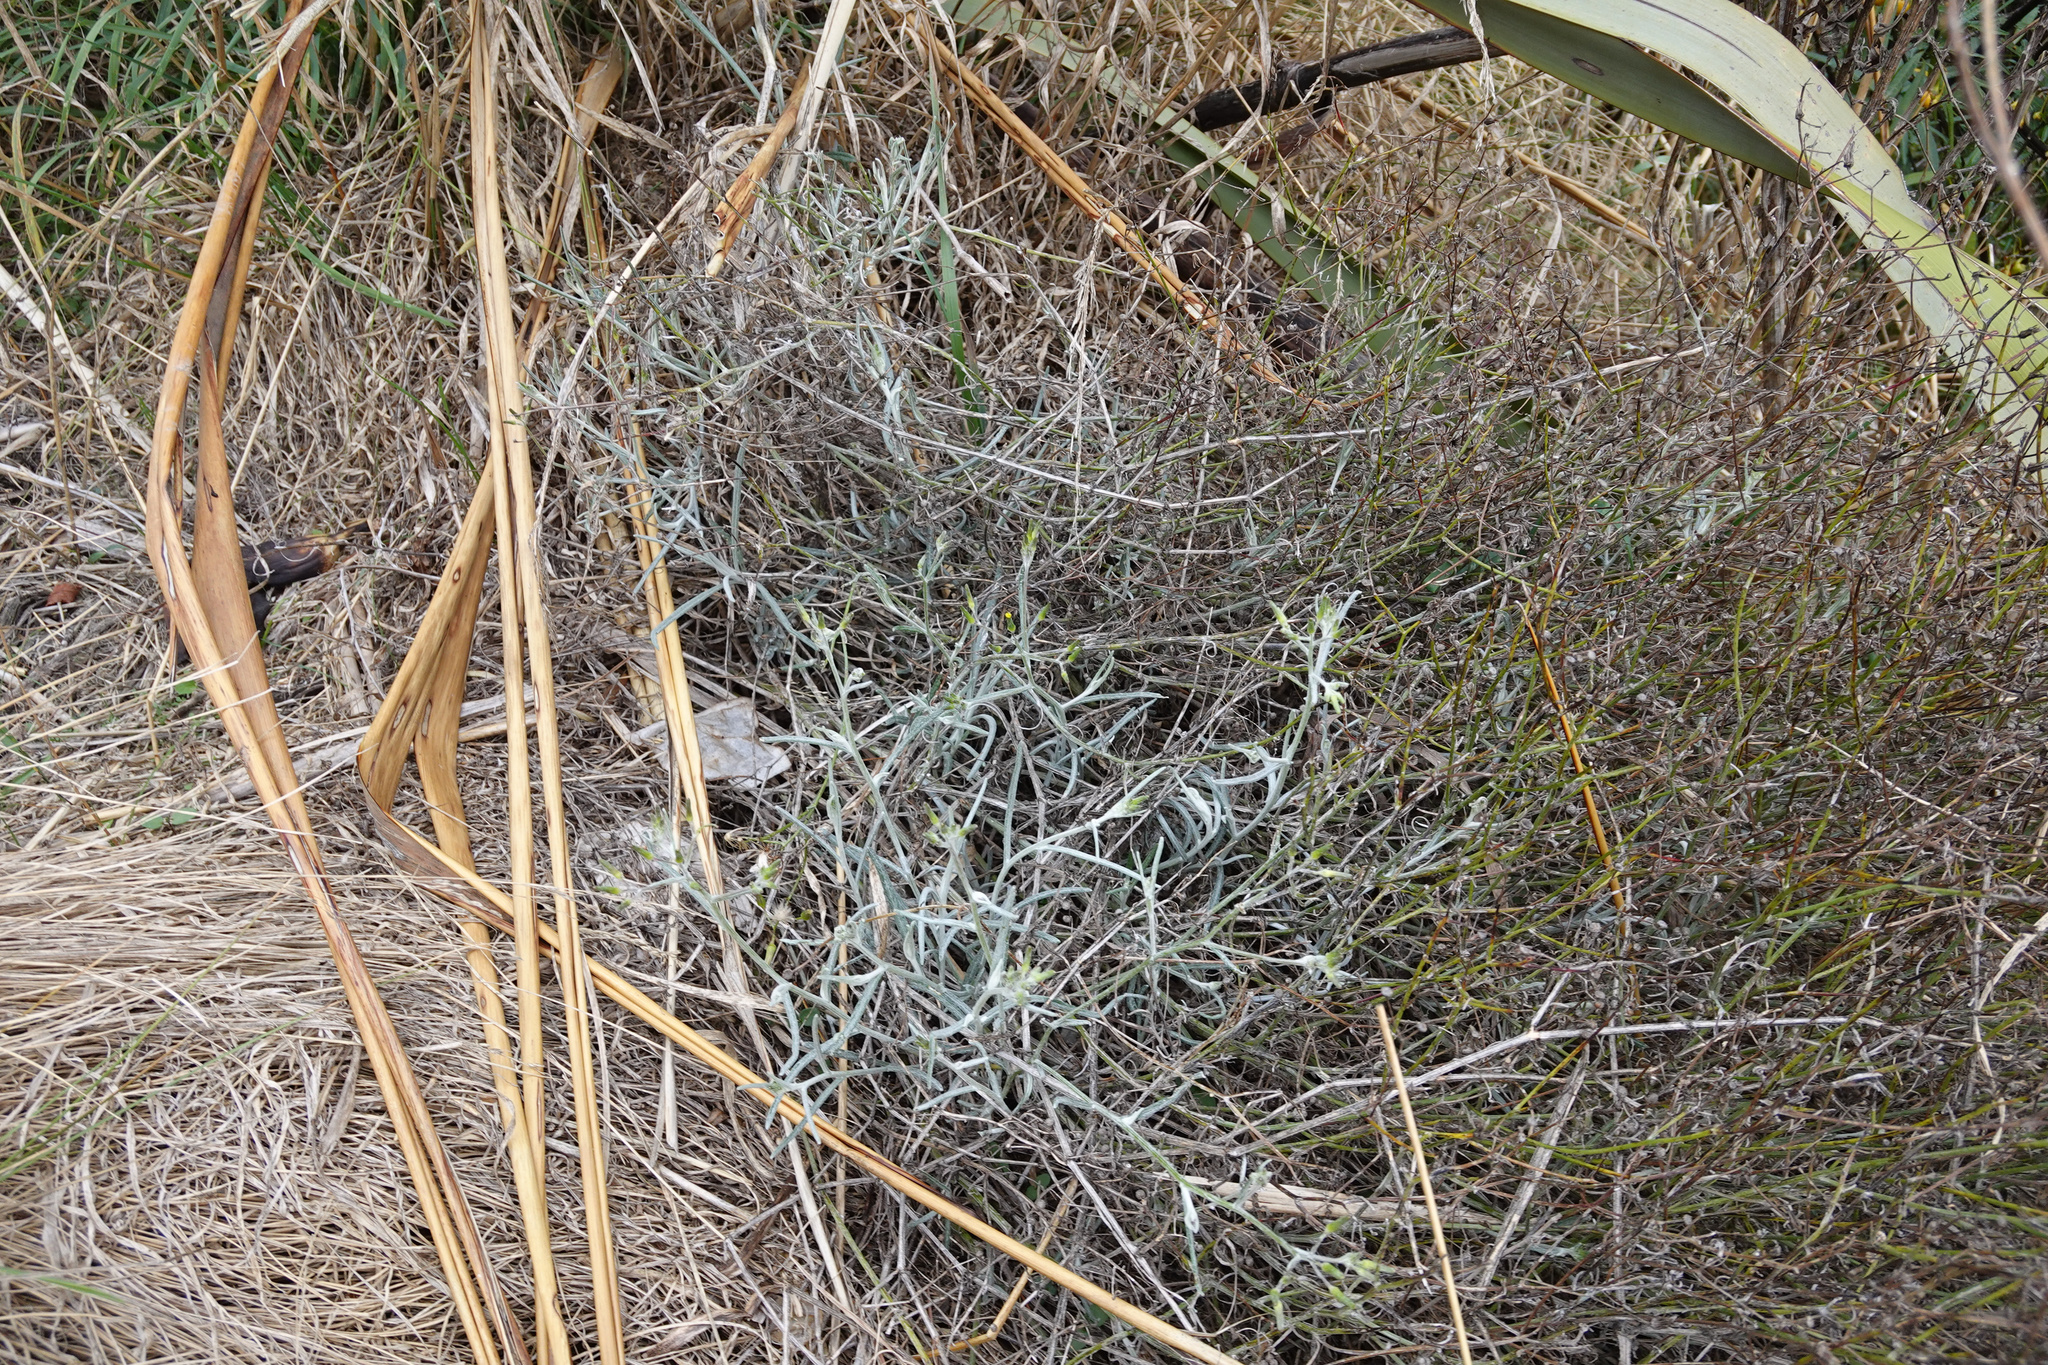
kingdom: Plantae
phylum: Tracheophyta
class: Magnoliopsida
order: Asterales
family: Asteraceae
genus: Senecio
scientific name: Senecio quadridentatus
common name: Cotton fireweed
